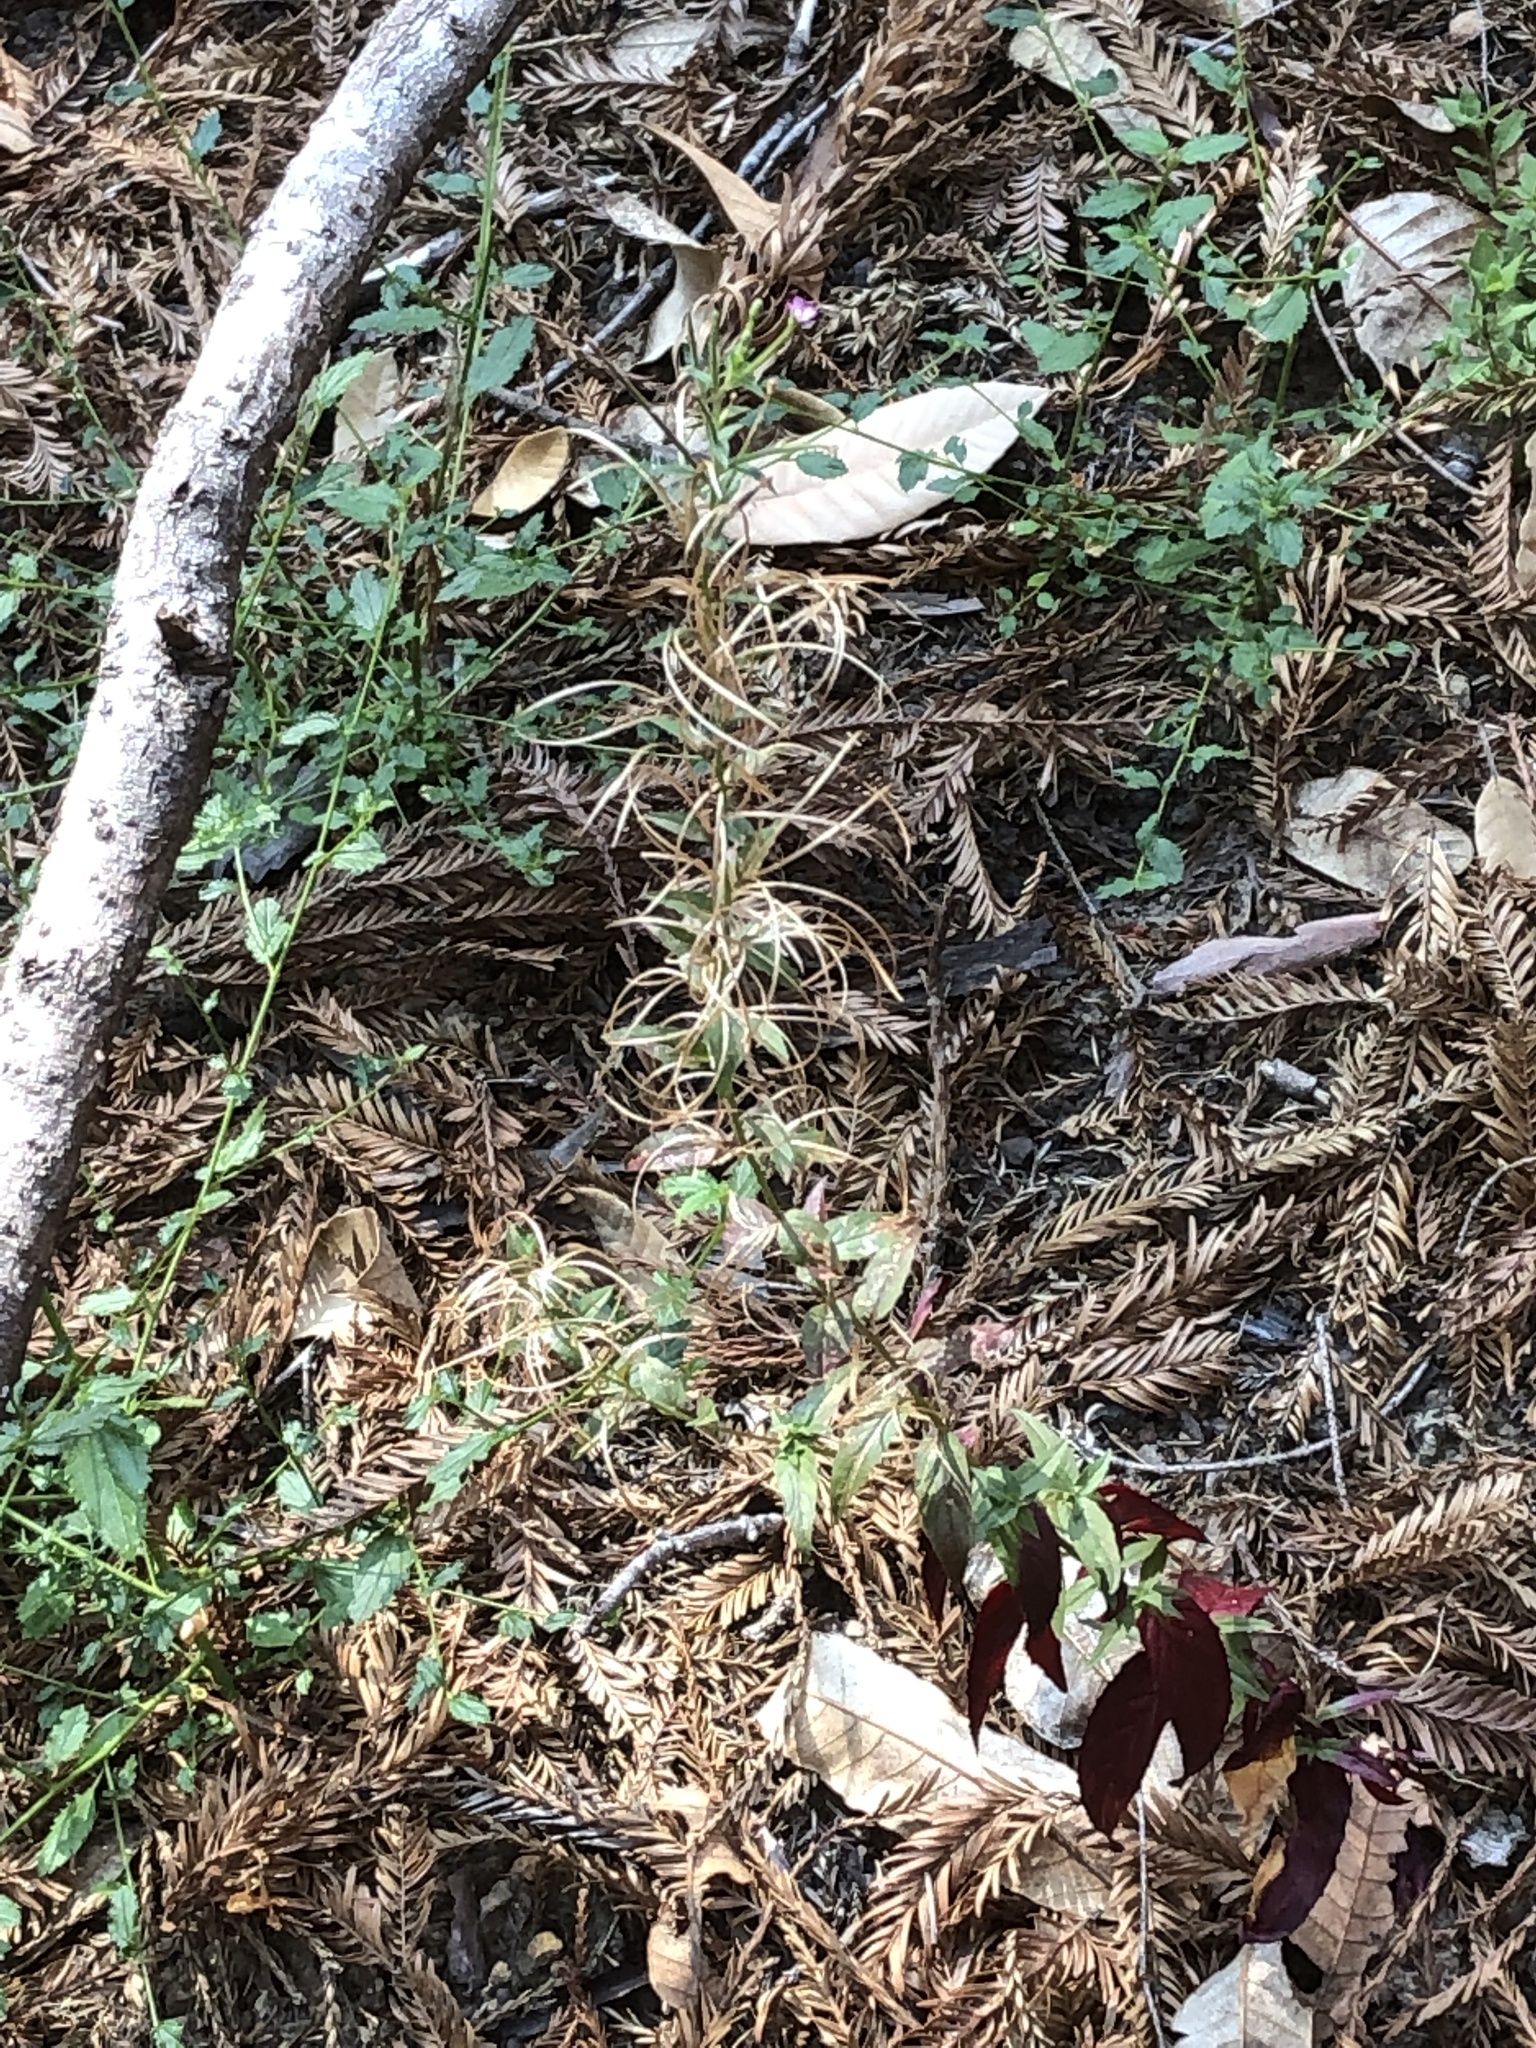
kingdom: Plantae
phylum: Tracheophyta
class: Magnoliopsida
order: Myrtales
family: Onagraceae
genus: Epilobium
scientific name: Epilobium ciliatum
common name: American willowherb
